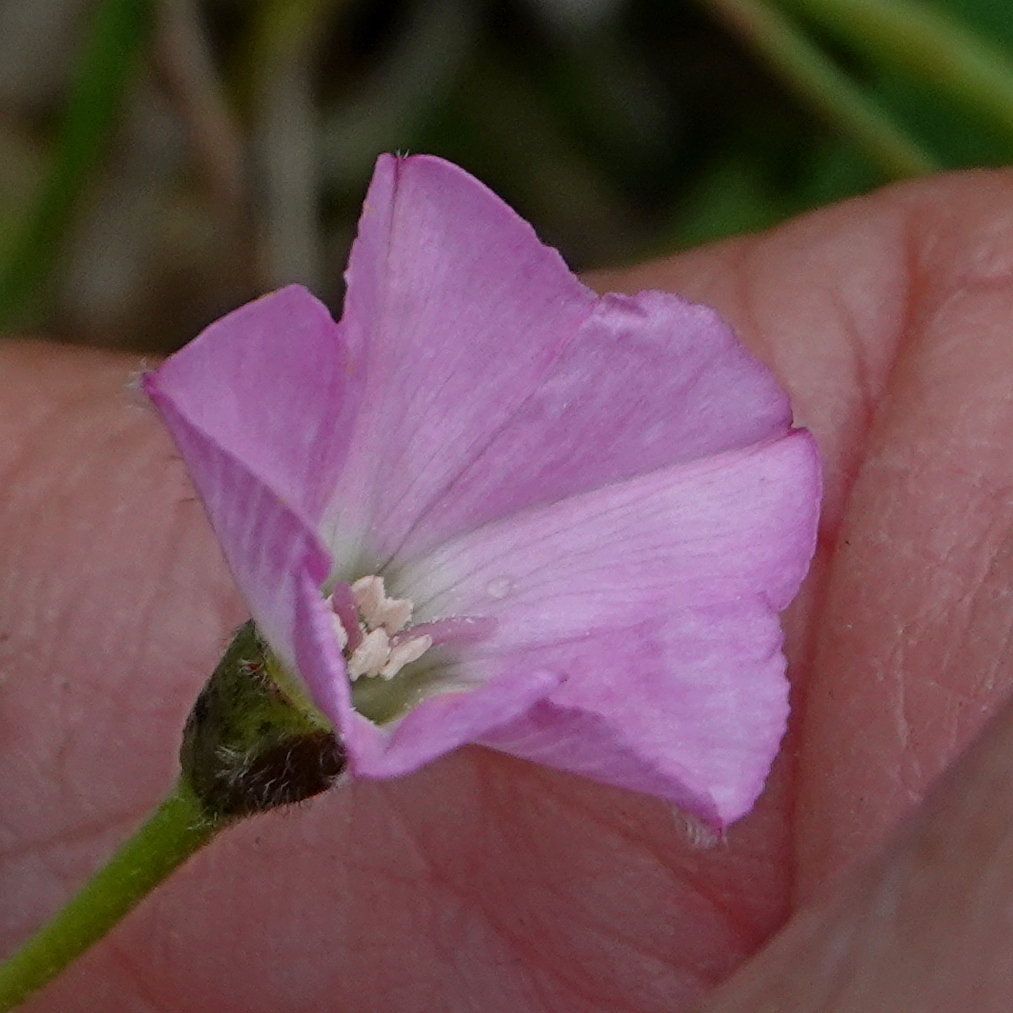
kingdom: Plantae
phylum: Tracheophyta
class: Magnoliopsida
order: Solanales
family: Convolvulaceae
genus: Convolvulus
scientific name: Convolvulus angustissimus
